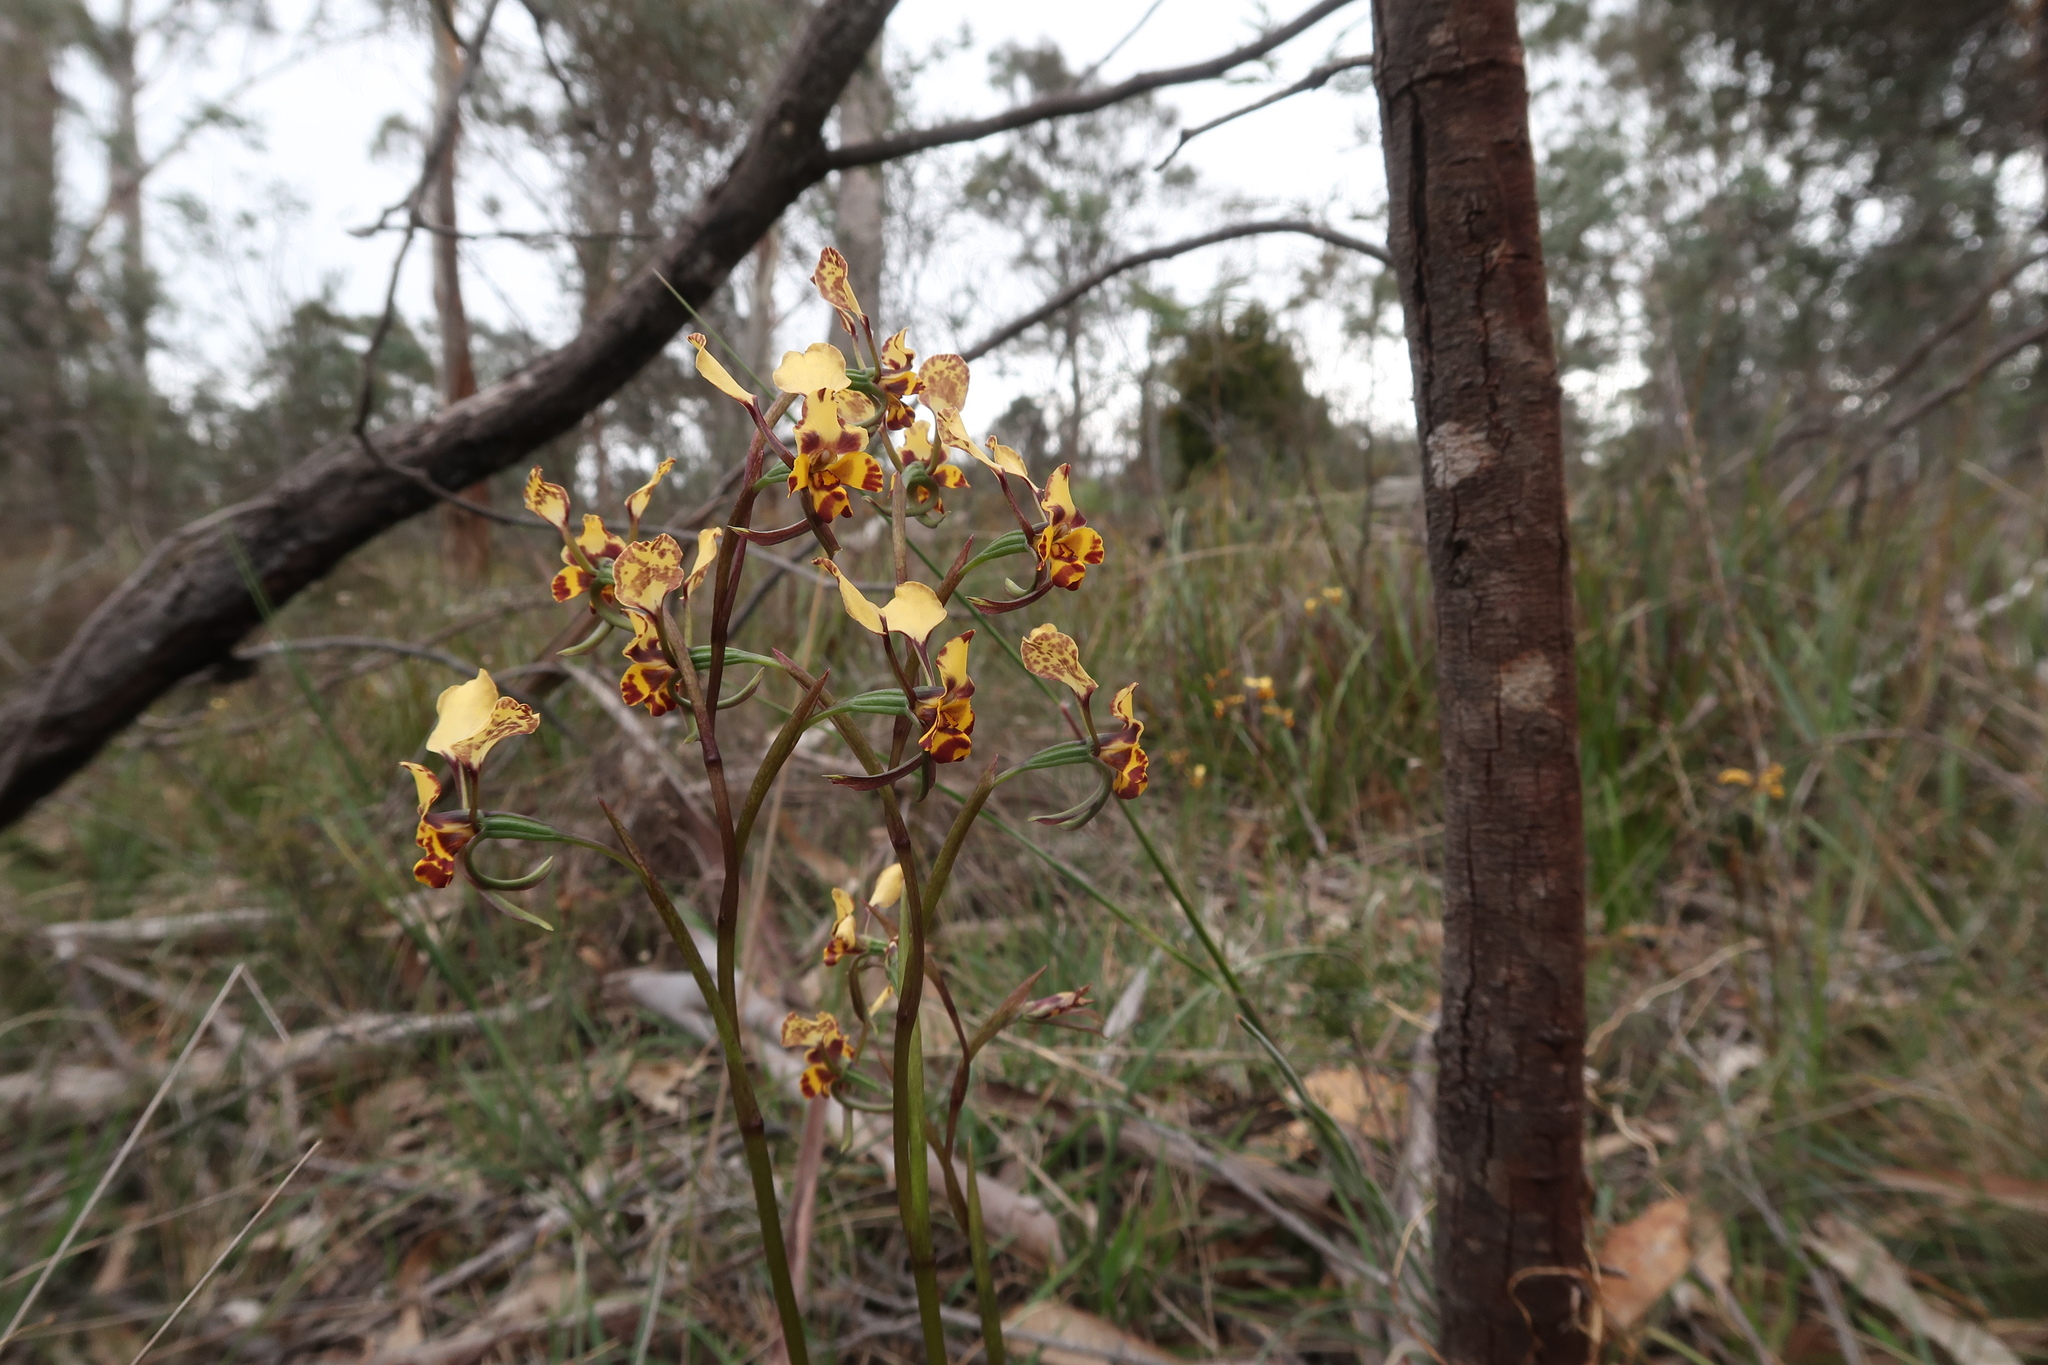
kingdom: Plantae
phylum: Tracheophyta
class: Liliopsida
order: Asparagales
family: Orchidaceae
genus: Diuris
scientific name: Diuris pardina
